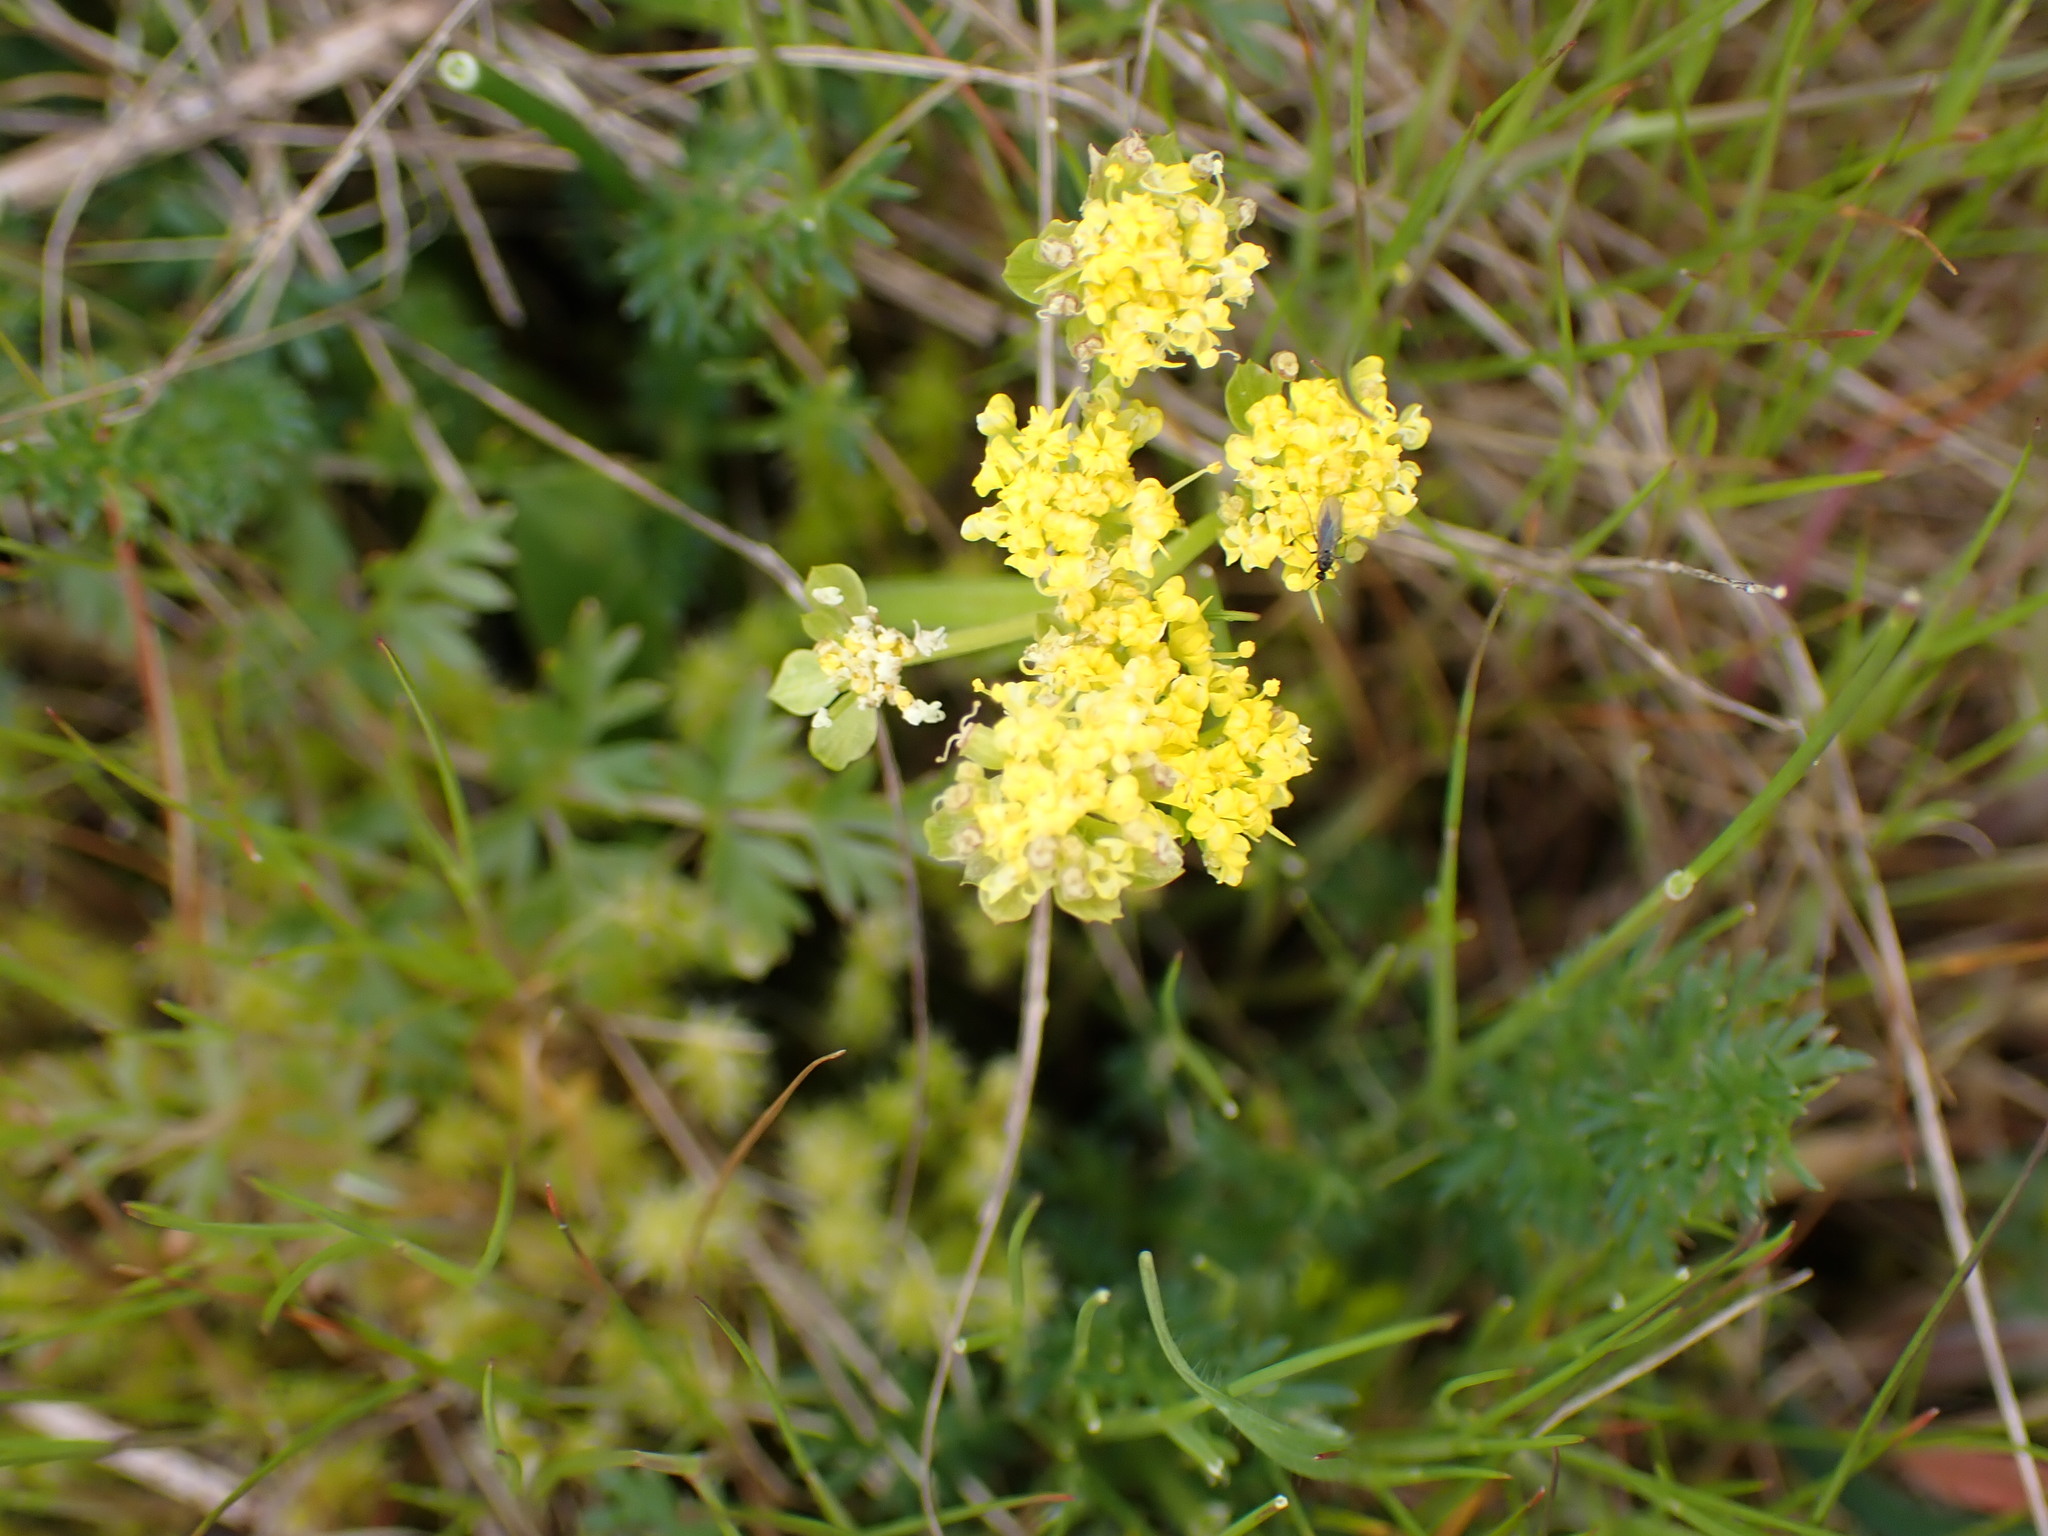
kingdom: Plantae
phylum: Tracheophyta
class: Magnoliopsida
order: Apiales
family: Apiaceae
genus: Lomatium
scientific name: Lomatium utriculatum
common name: Fine-leaf desert-parsley
